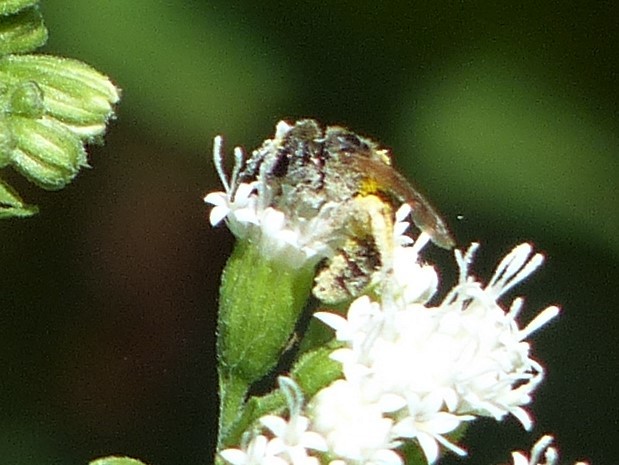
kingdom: Animalia
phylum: Arthropoda
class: Insecta
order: Hymenoptera
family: Halictidae
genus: Halictus
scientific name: Halictus ligatus
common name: Ligated furrow bee
